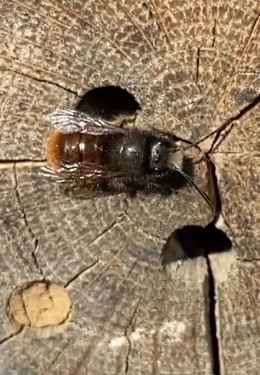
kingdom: Animalia
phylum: Arthropoda
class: Insecta
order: Hymenoptera
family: Megachilidae
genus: Osmia
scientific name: Osmia cornuta
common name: Mason bee
